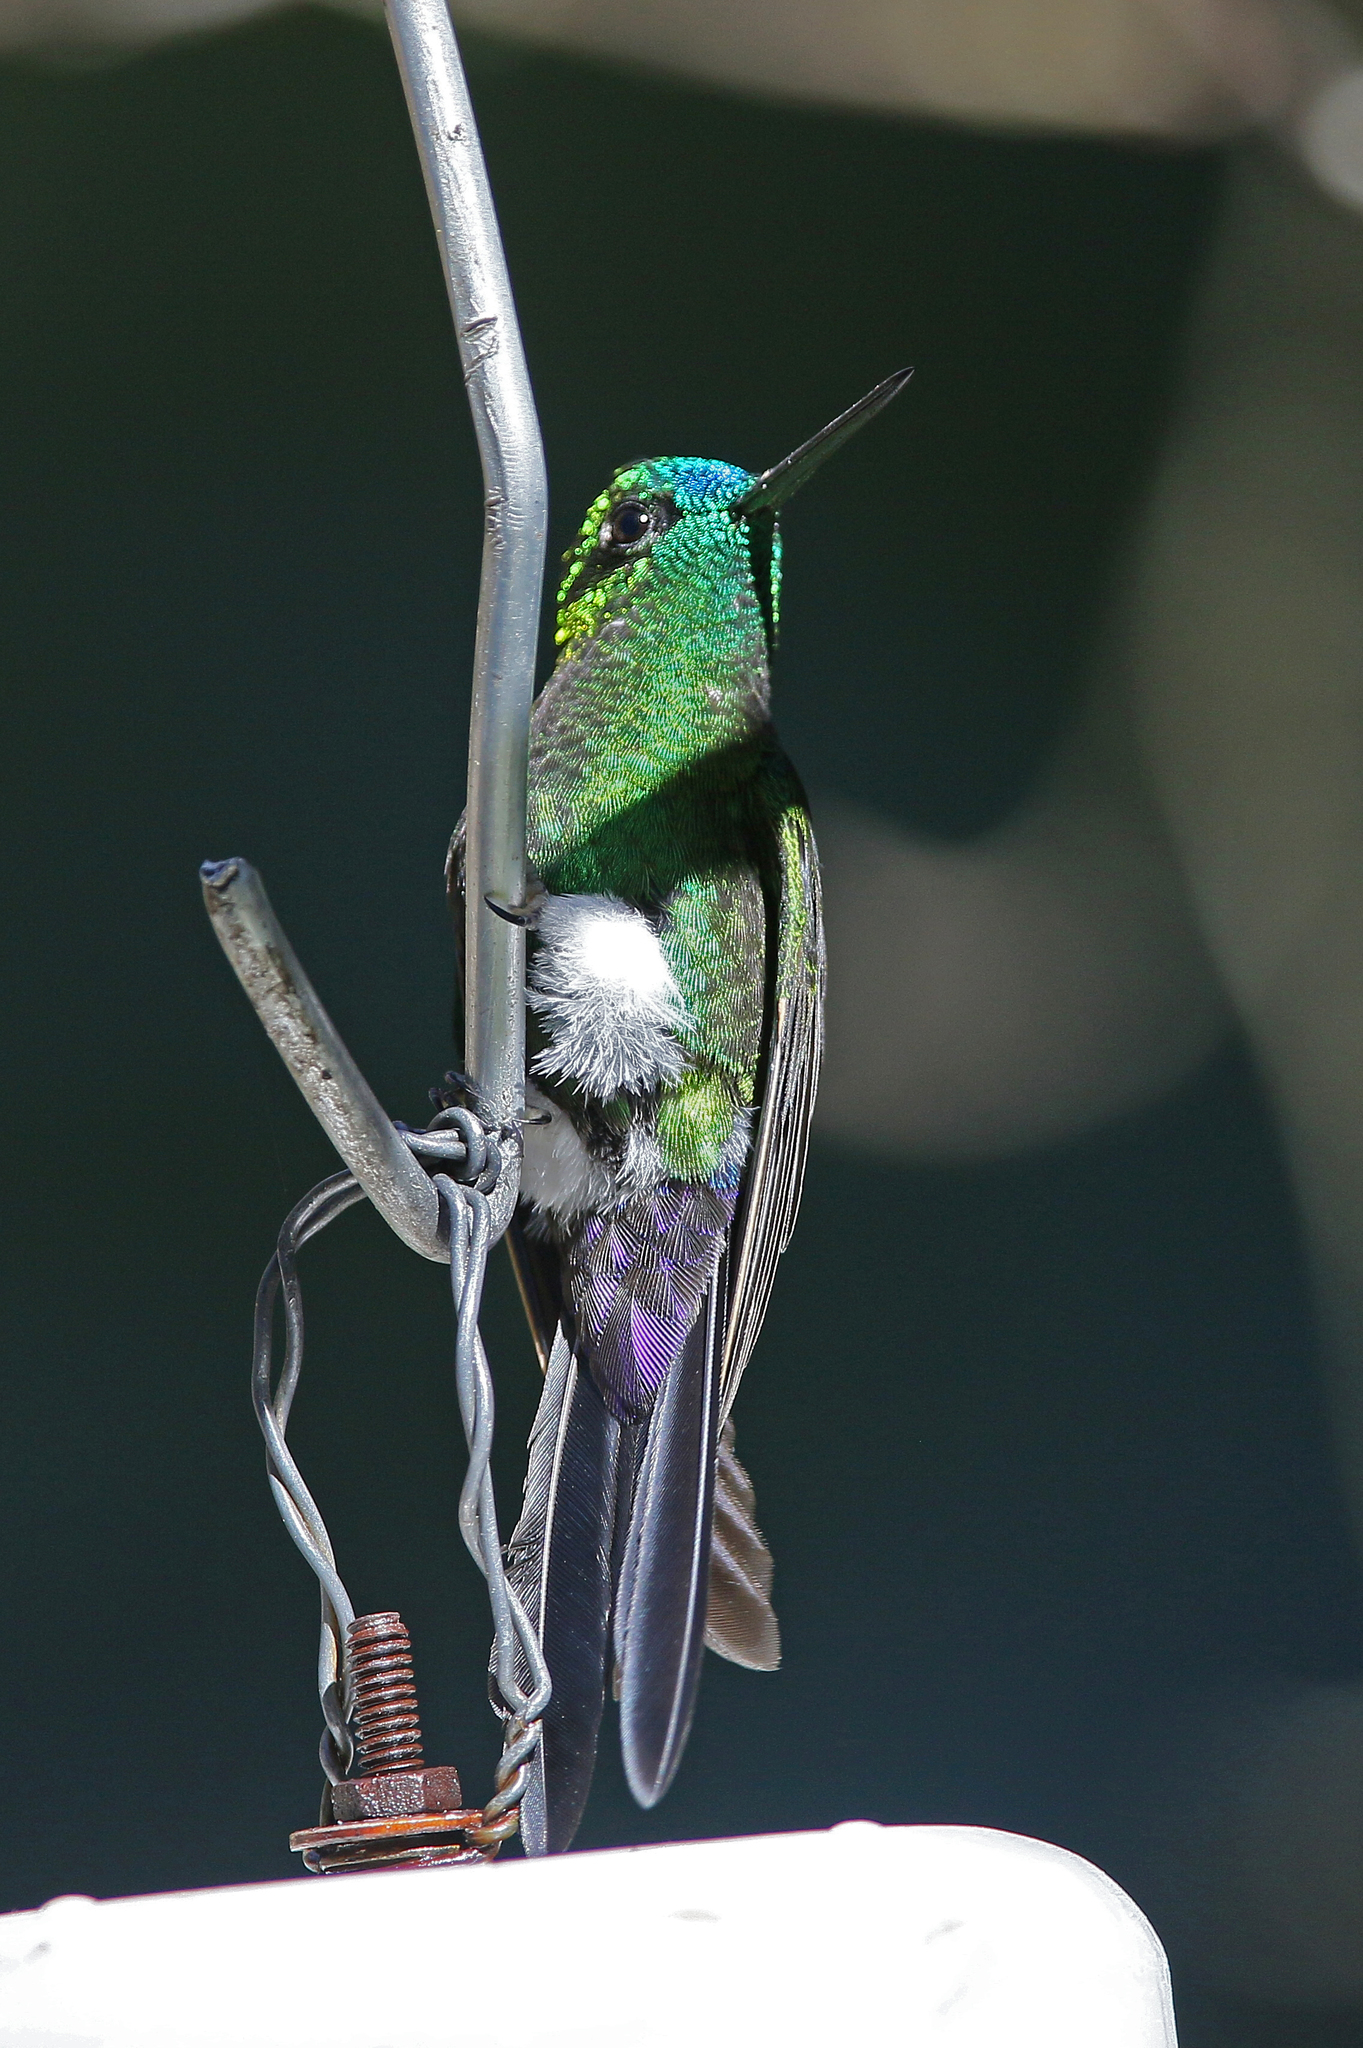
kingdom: Animalia
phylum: Chordata
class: Aves
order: Apodiformes
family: Trochilidae
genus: Eriocnemis
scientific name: Eriocnemis luciani
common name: Sapphire-vented puffleg
